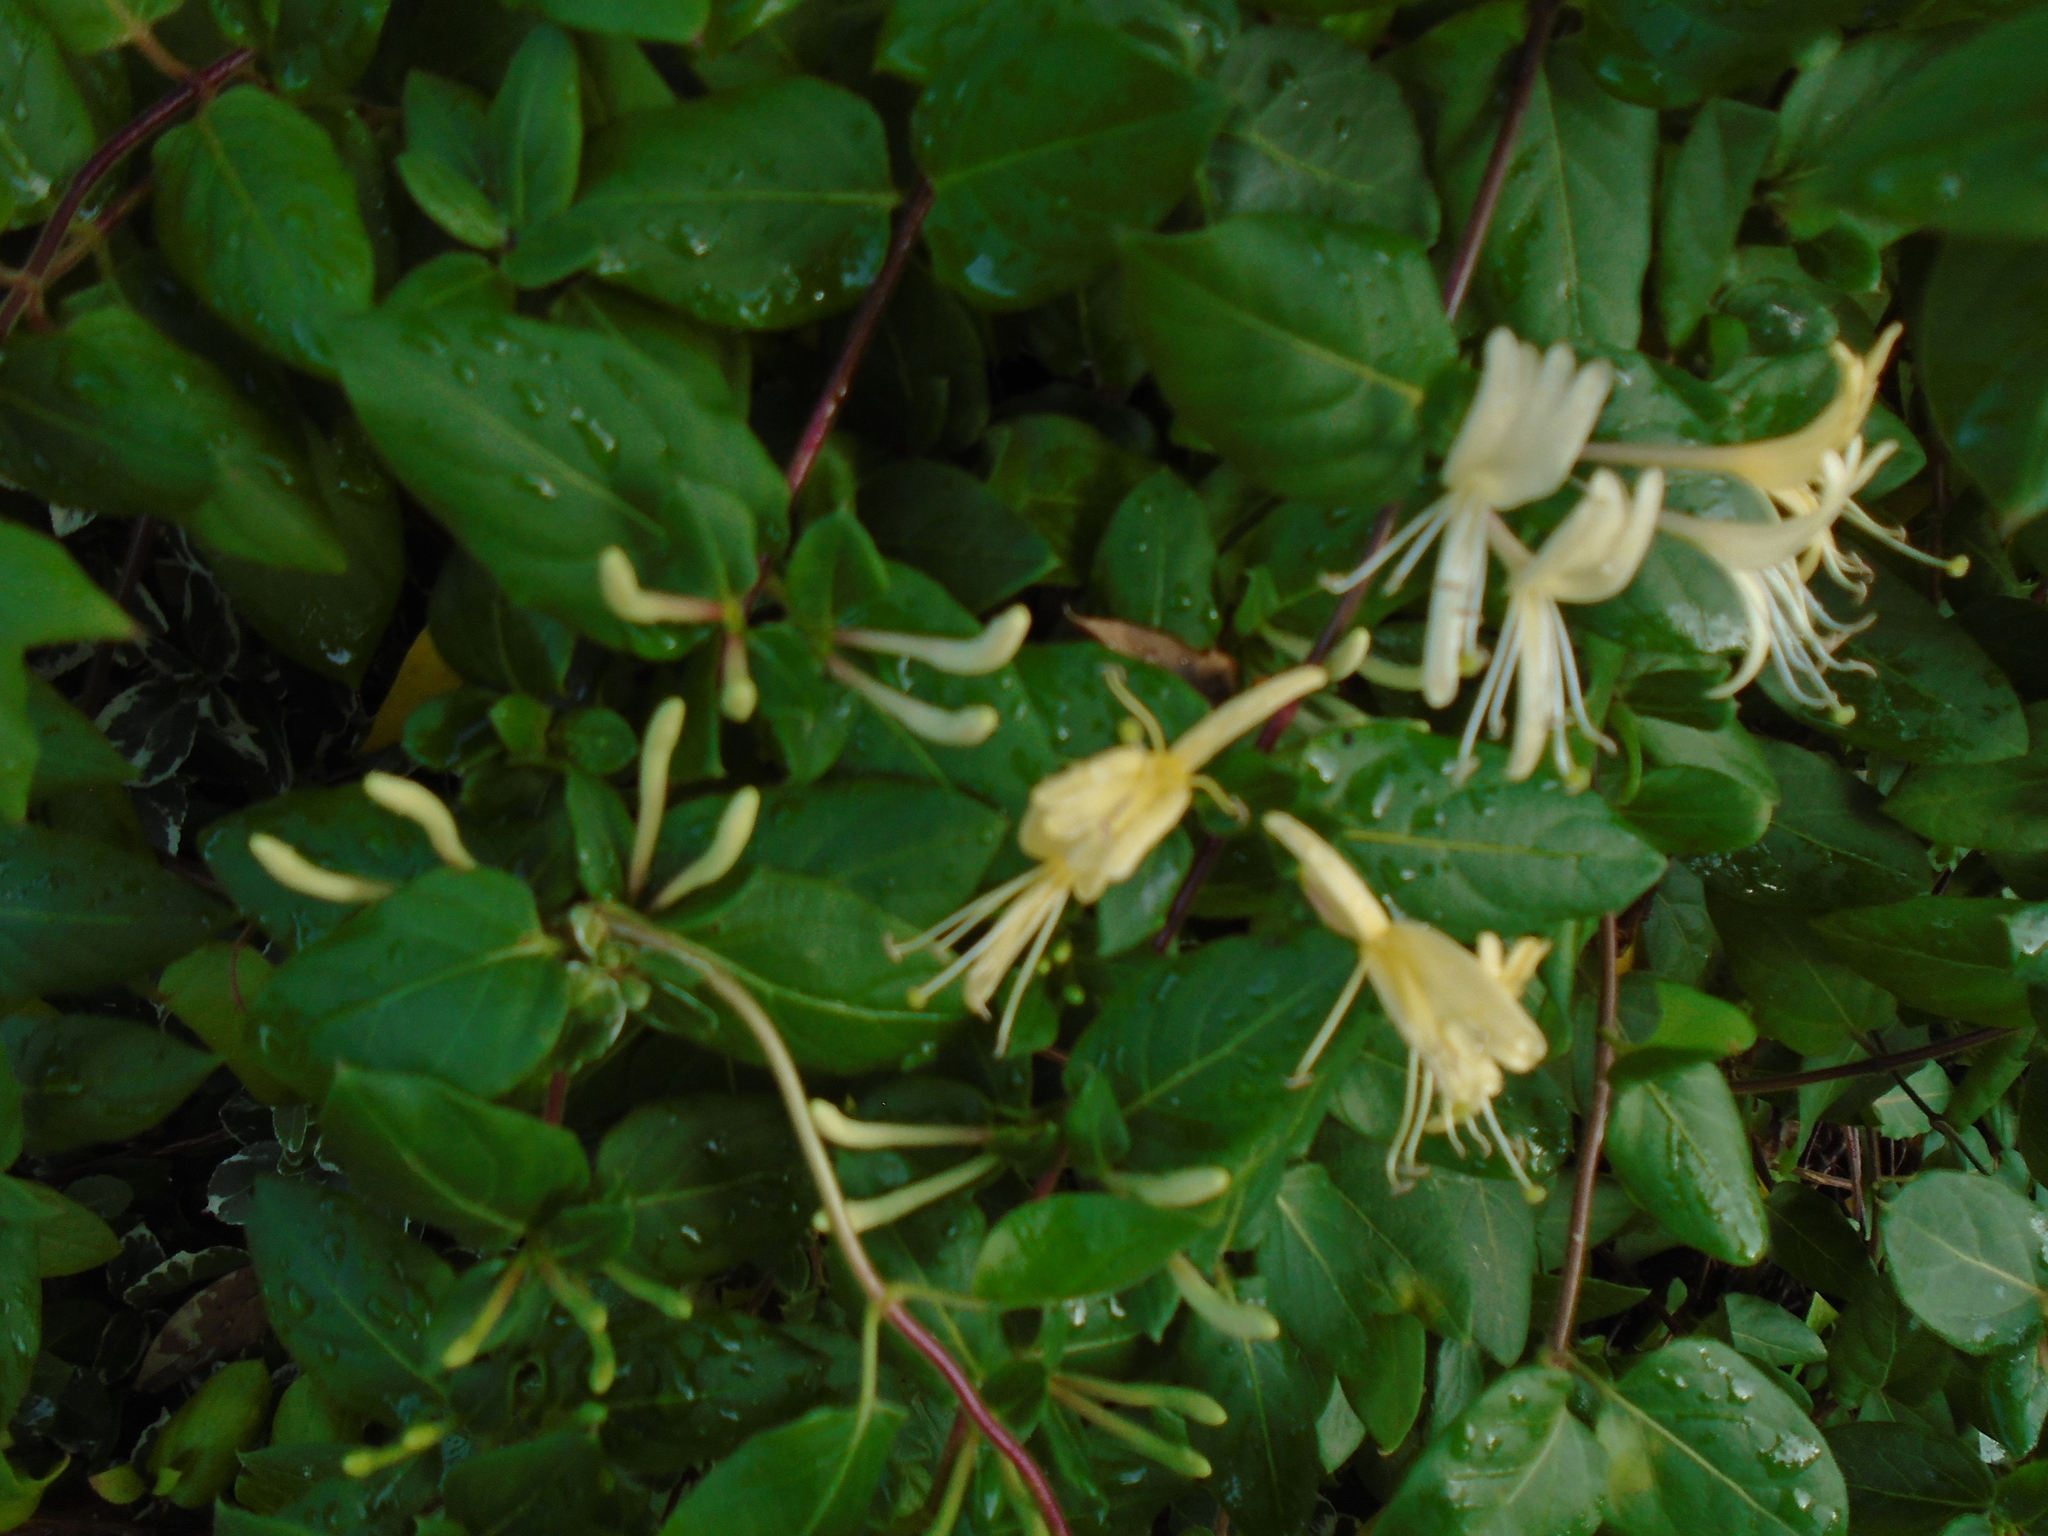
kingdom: Plantae
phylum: Tracheophyta
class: Magnoliopsida
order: Dipsacales
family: Caprifoliaceae
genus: Lonicera
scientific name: Lonicera japonica
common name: Japanese honeysuckle
